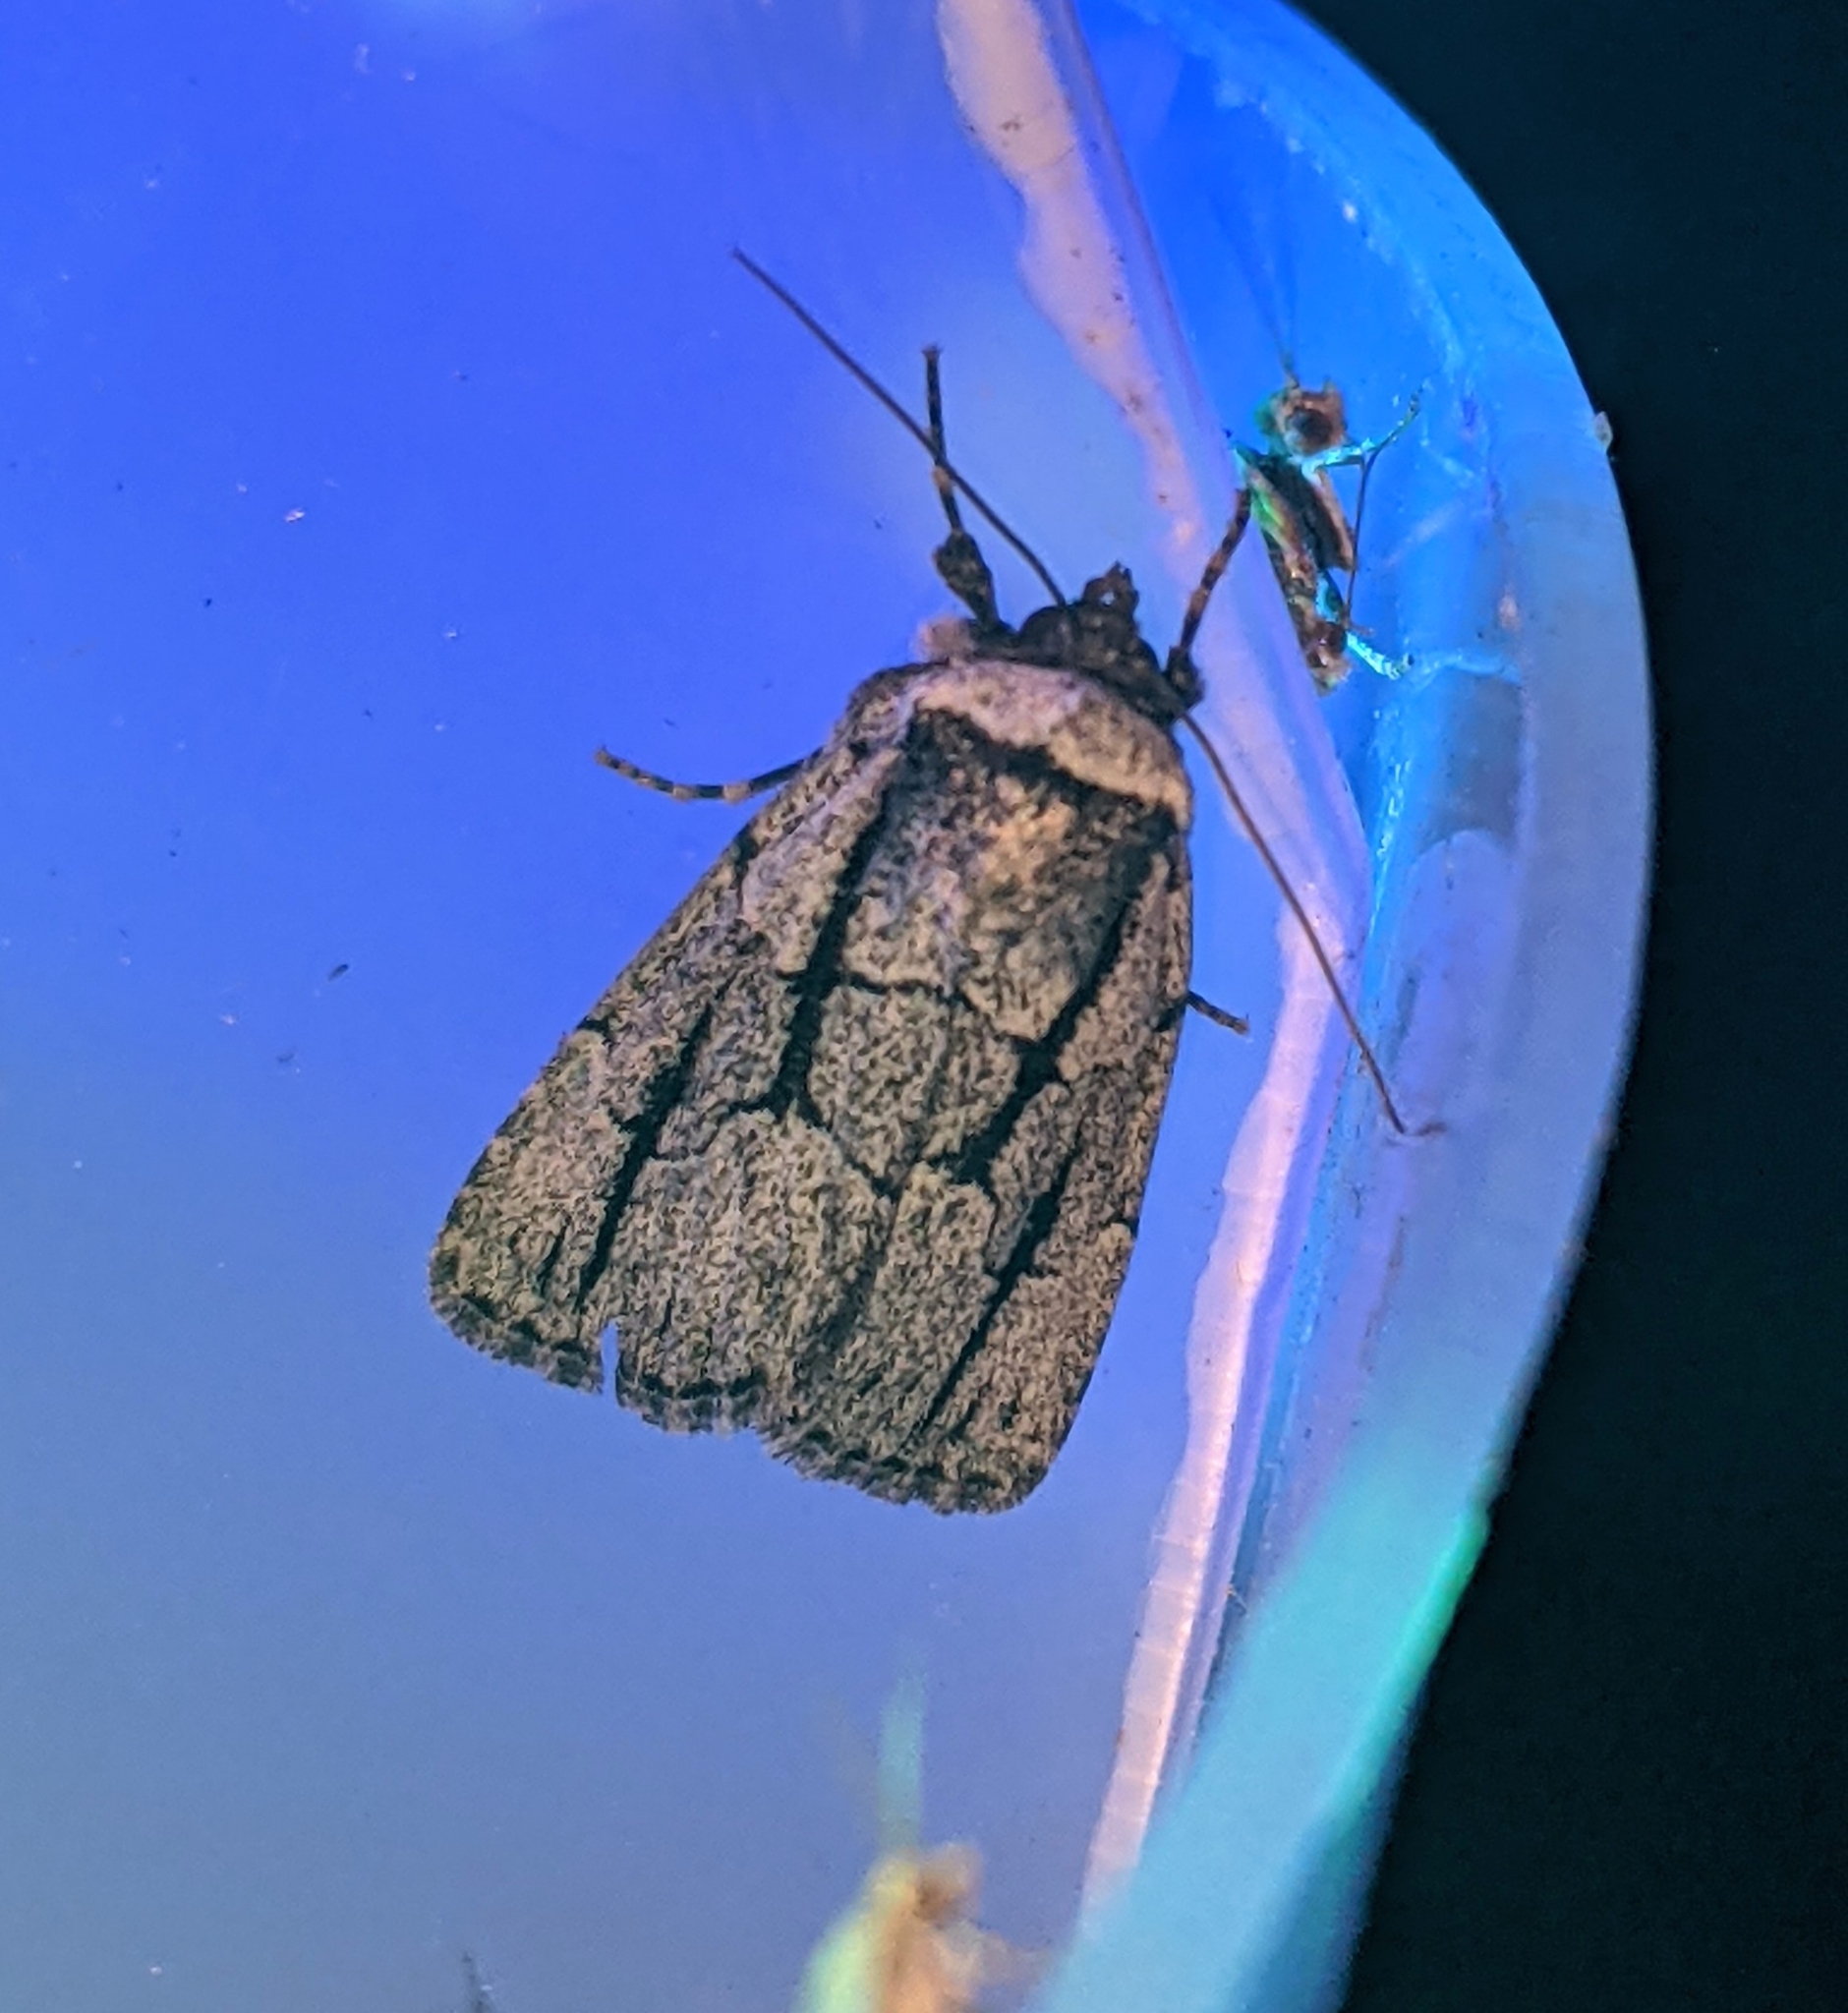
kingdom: Animalia
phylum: Arthropoda
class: Insecta
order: Lepidoptera
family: Noctuidae
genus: Sympistis
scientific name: Sympistis dinalda
